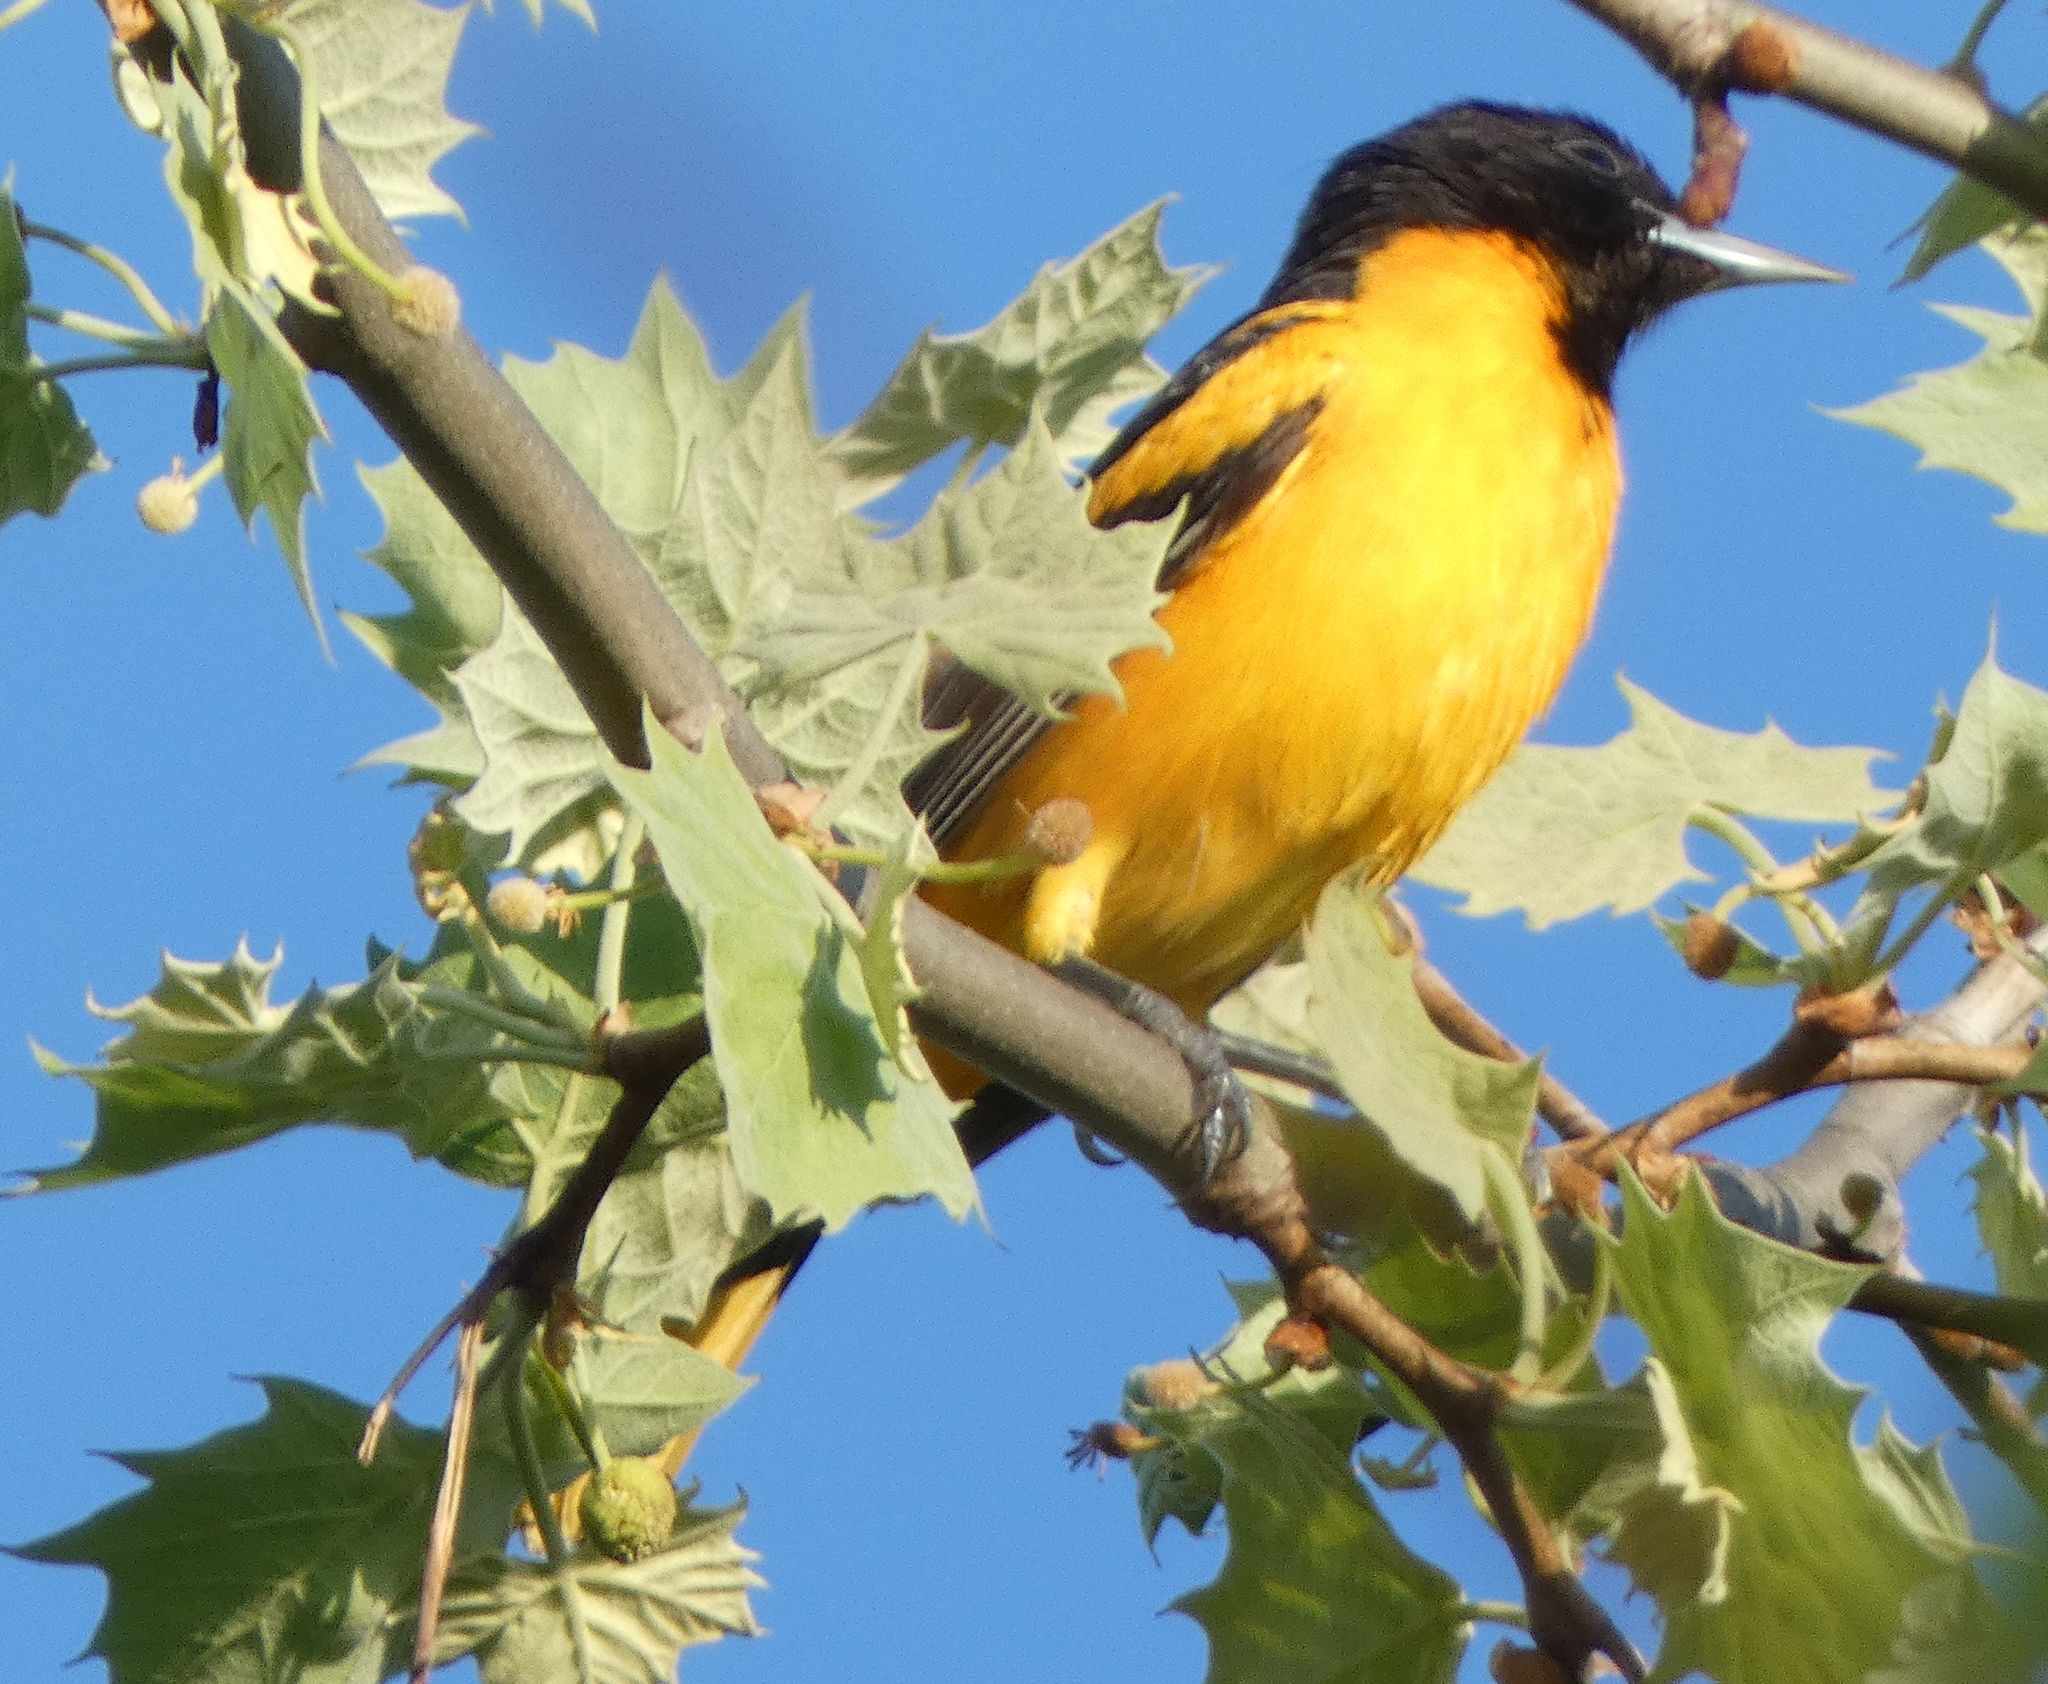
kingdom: Animalia
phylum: Chordata
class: Aves
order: Passeriformes
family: Icteridae
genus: Icterus
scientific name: Icterus galbula
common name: Baltimore oriole
